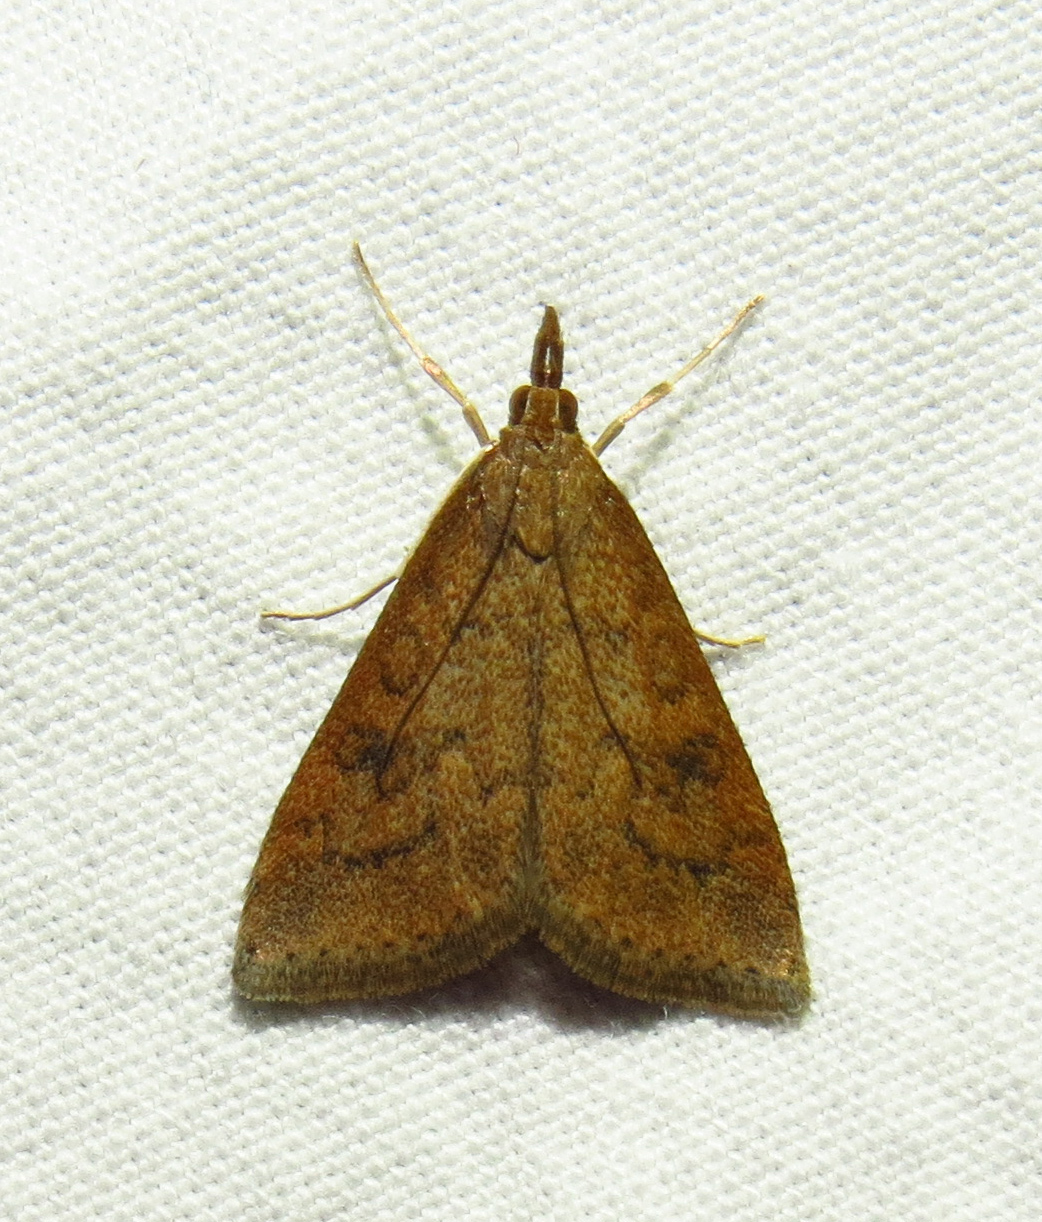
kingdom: Animalia
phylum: Arthropoda
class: Insecta
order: Lepidoptera
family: Crambidae
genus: Udea
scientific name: Udea rubigalis
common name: Celery leaftier moth
